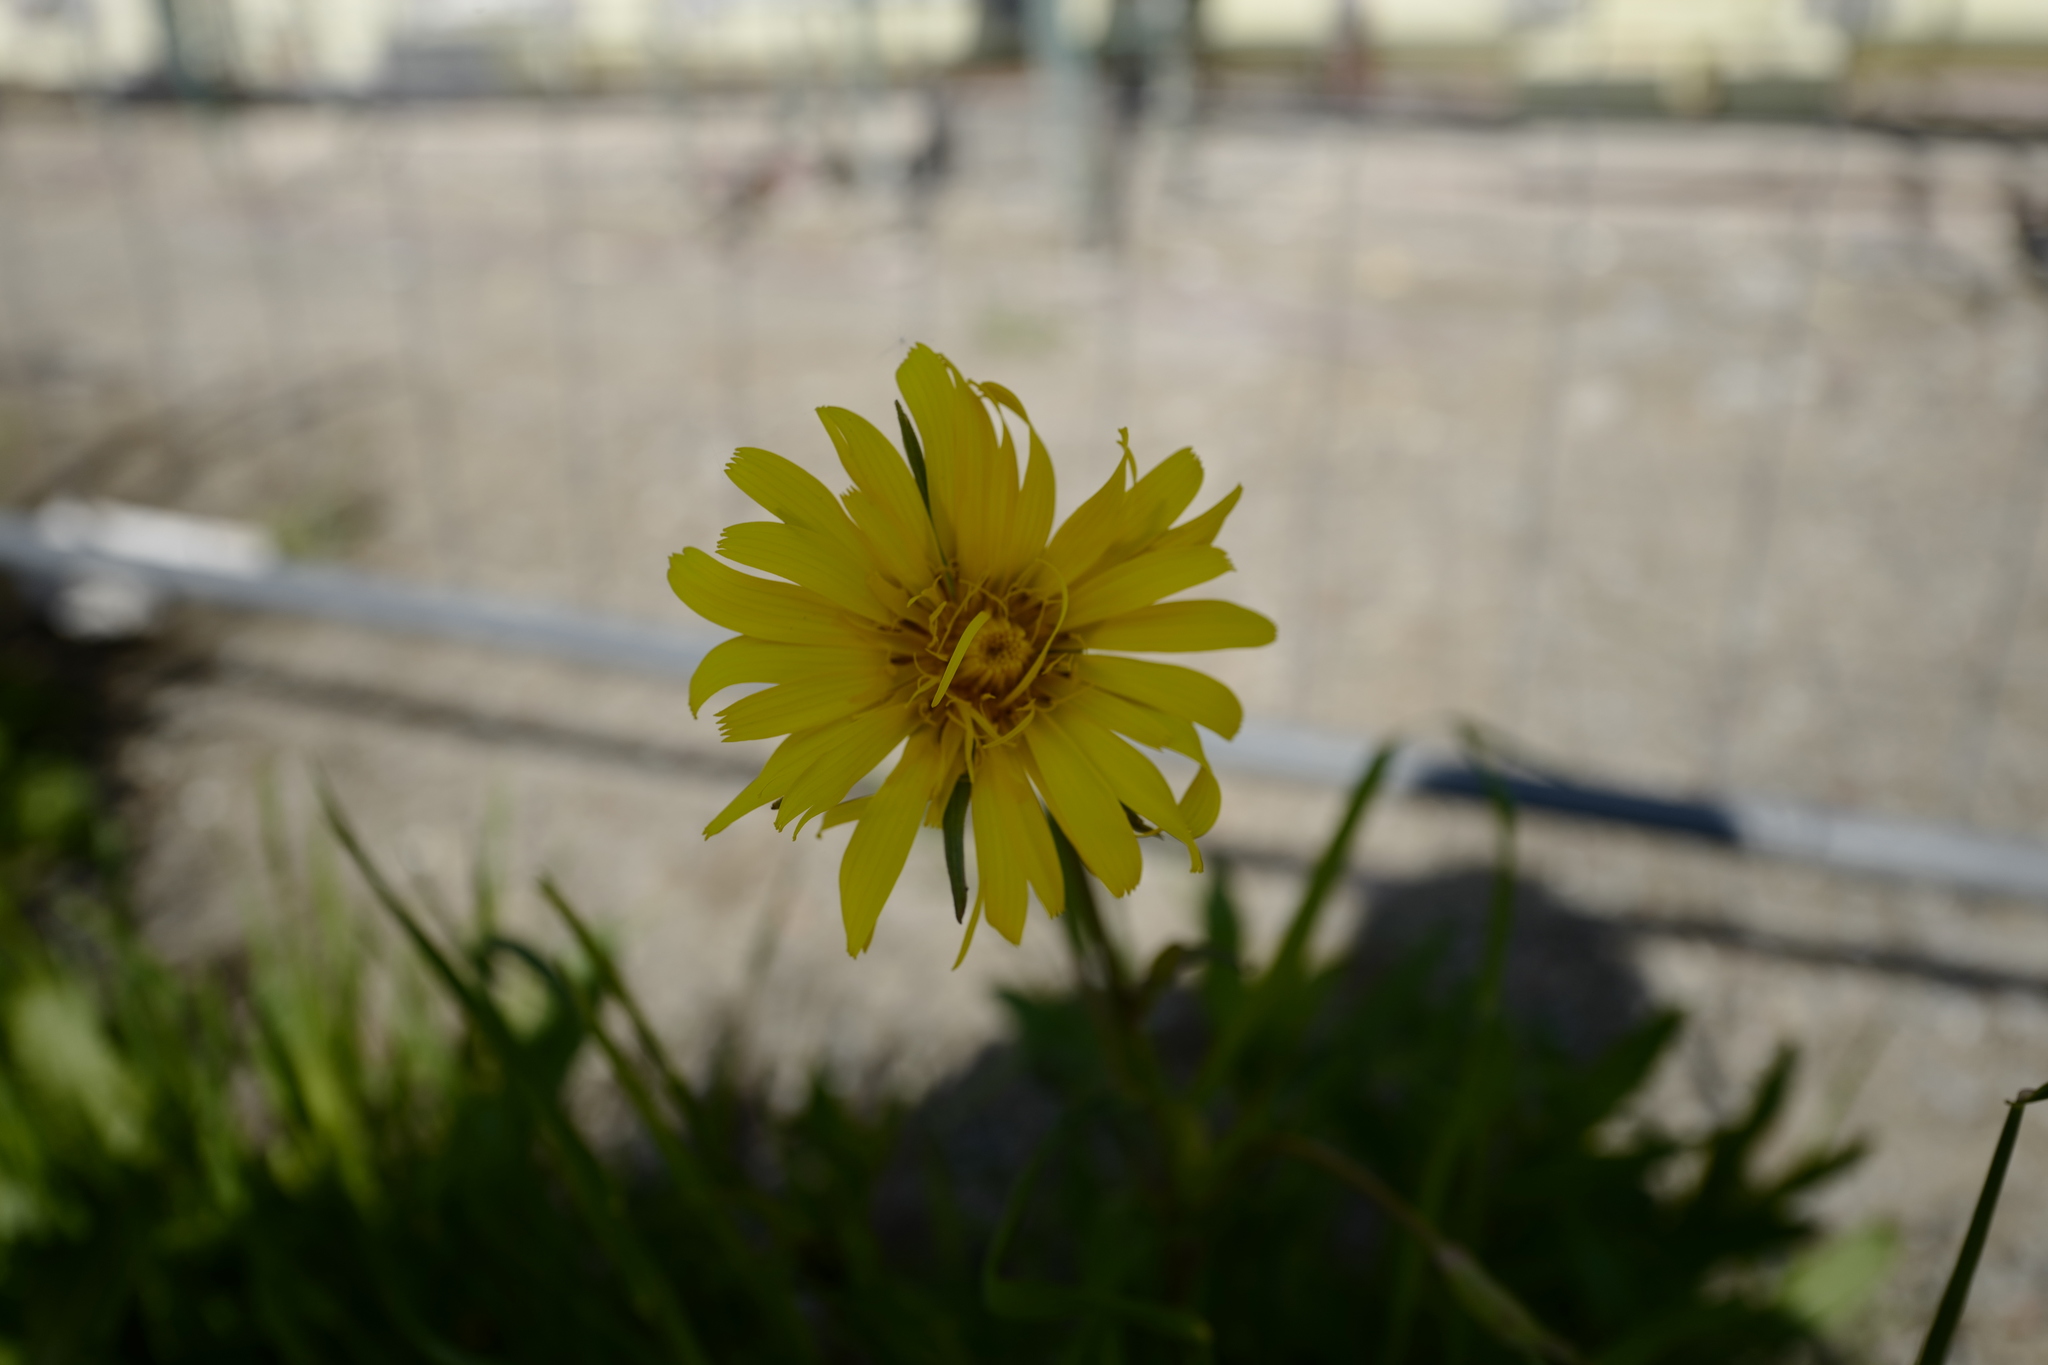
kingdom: Plantae
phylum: Tracheophyta
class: Magnoliopsida
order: Asterales
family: Asteraceae
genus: Tragopogon
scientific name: Tragopogon orientalis
